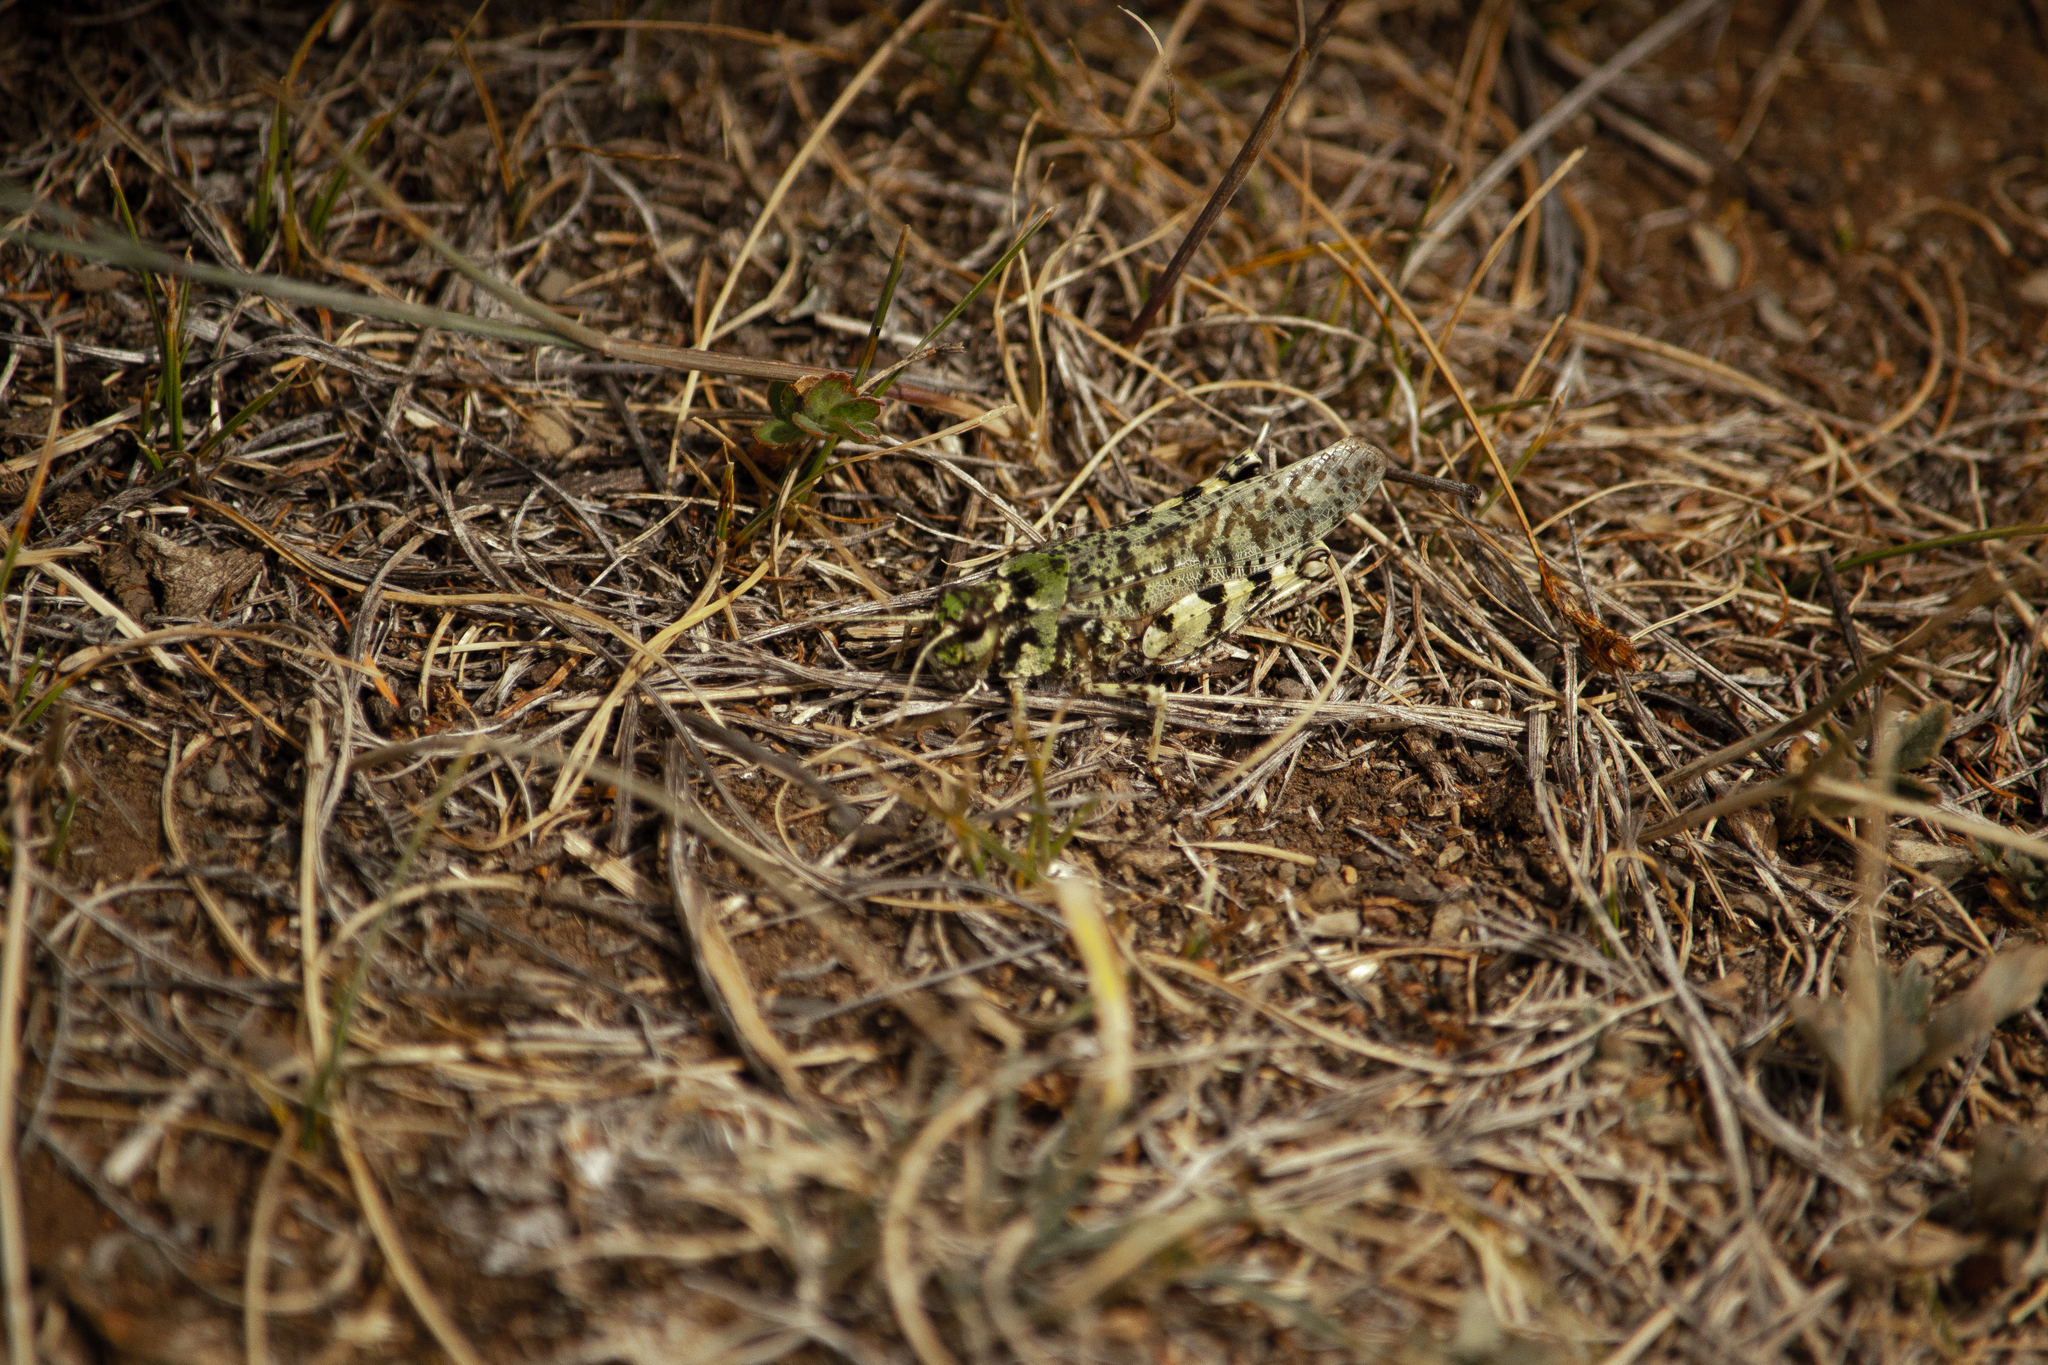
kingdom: Animalia
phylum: Arthropoda
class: Insecta
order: Orthoptera
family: Acrididae
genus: Angaracris
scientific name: Angaracris barabensis
